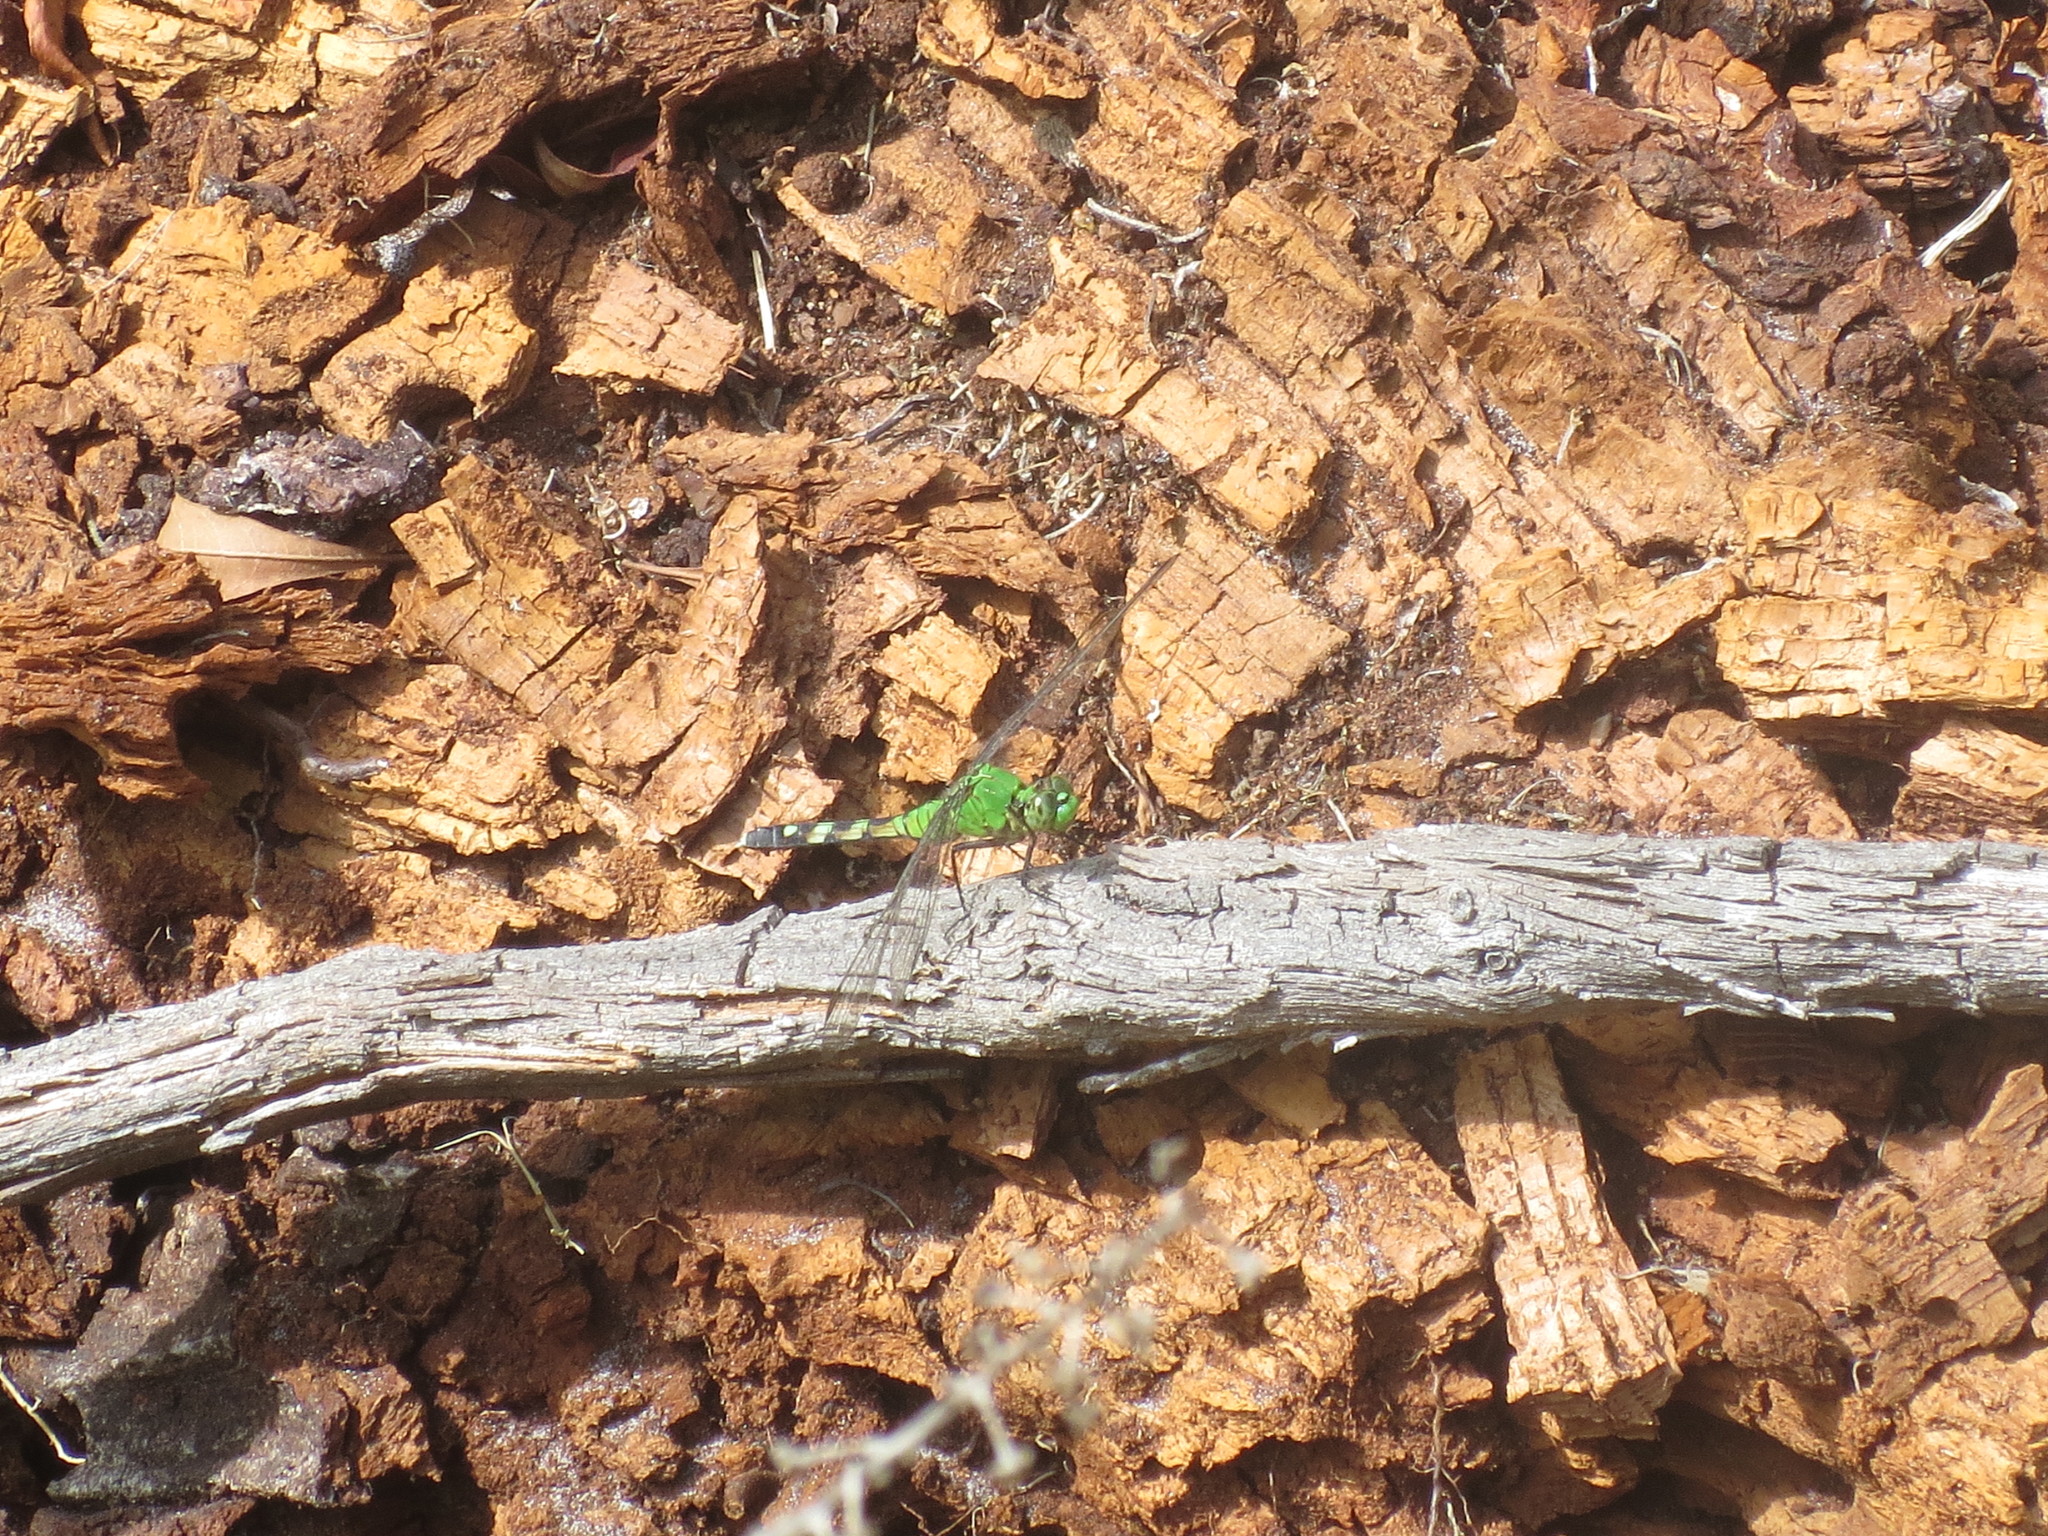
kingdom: Animalia
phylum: Arthropoda
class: Insecta
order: Odonata
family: Libellulidae
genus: Erythemis
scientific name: Erythemis simplicicollis
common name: Eastern pondhawk
